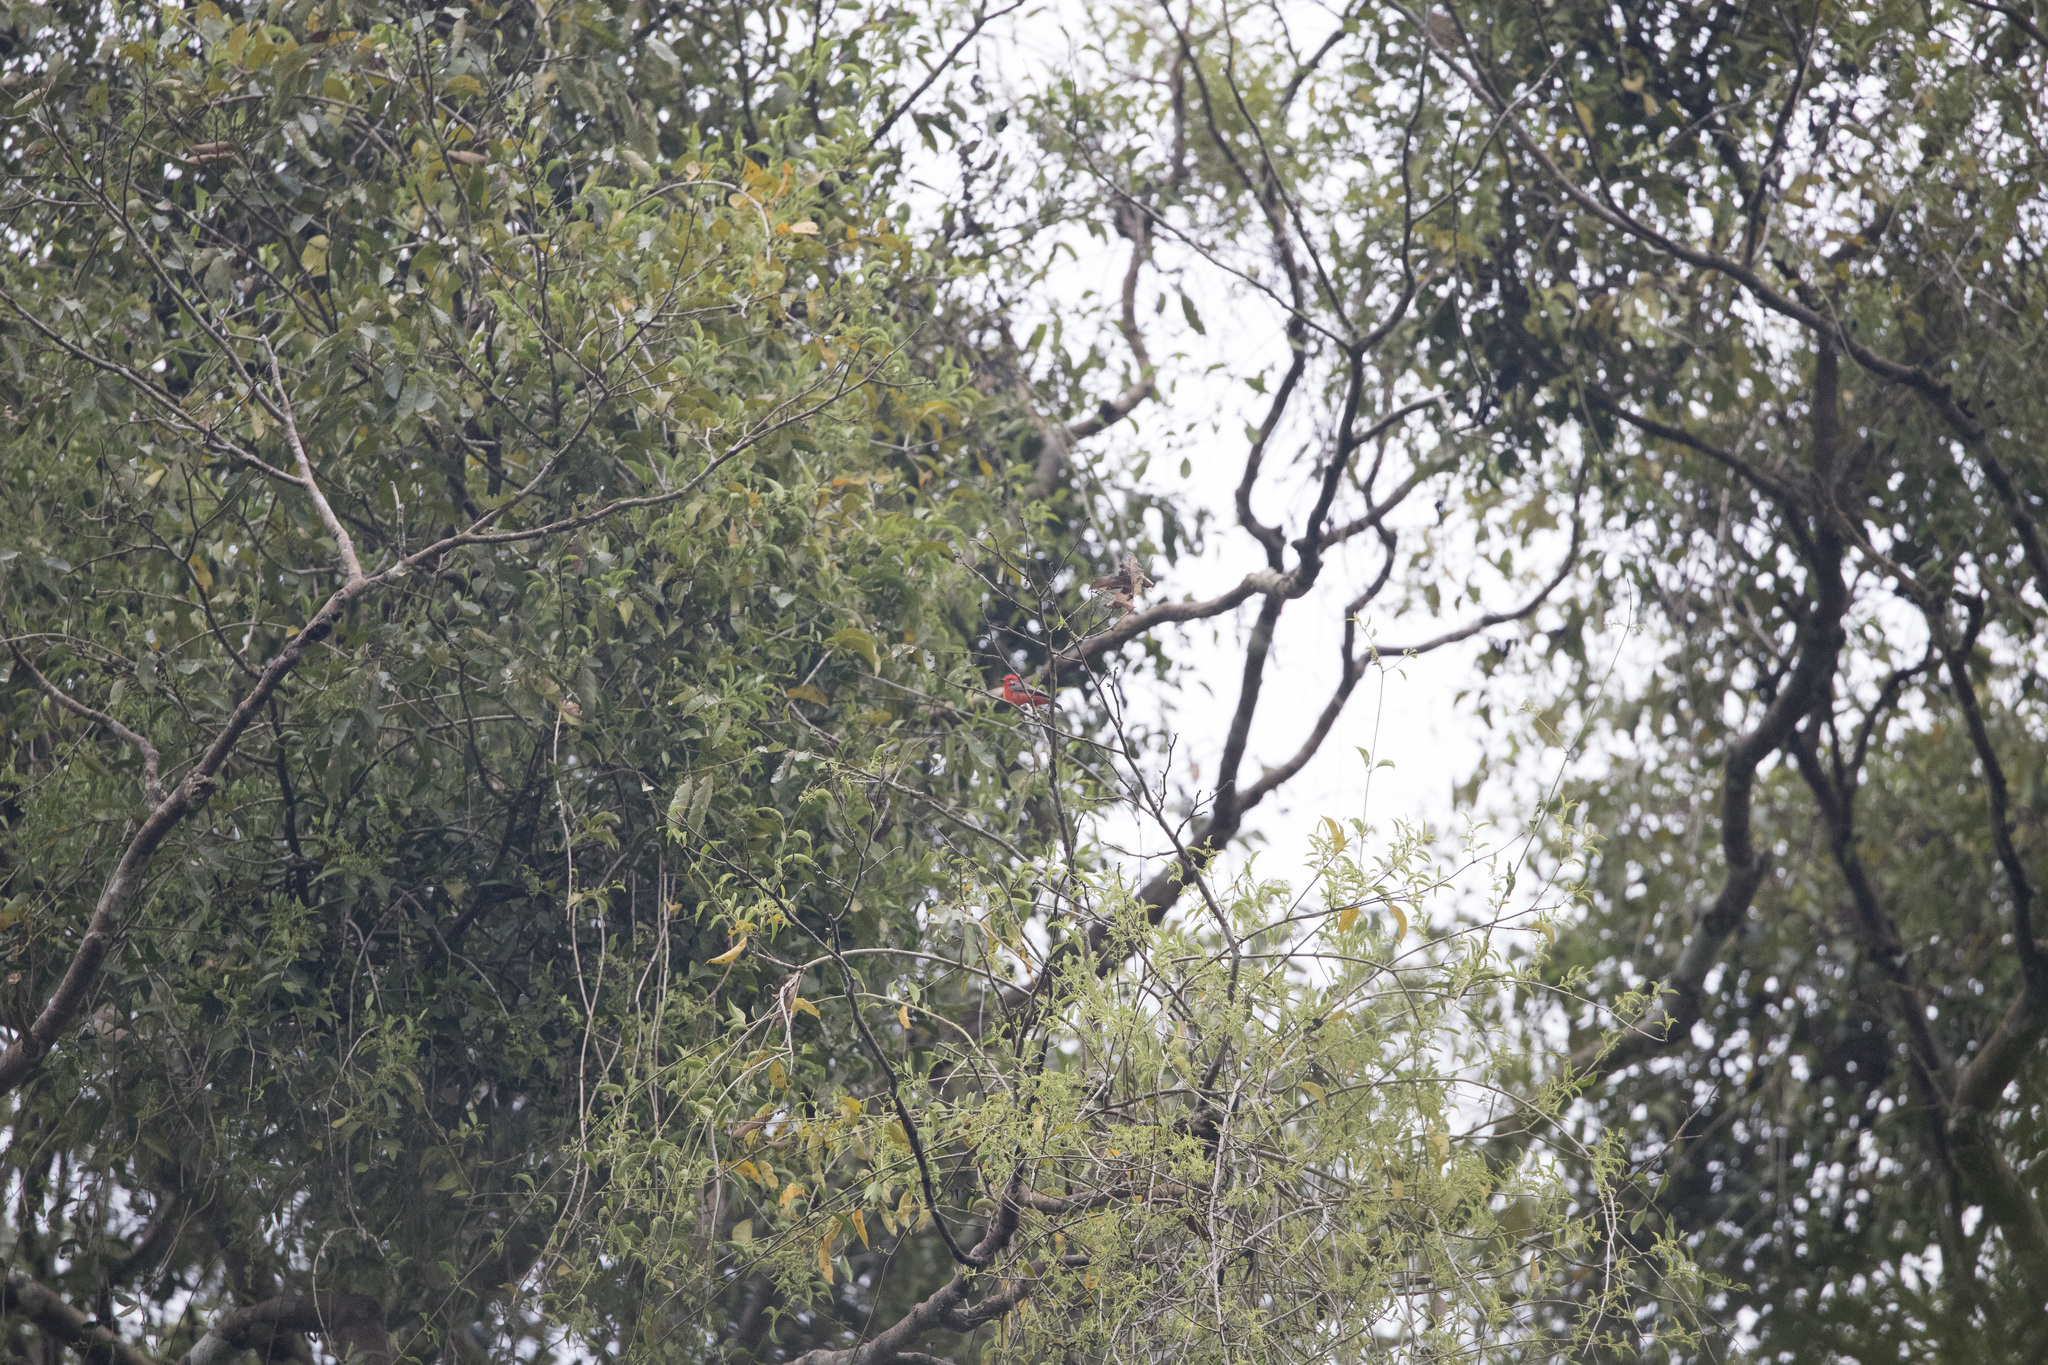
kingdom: Animalia
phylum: Chordata
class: Aves
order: Passeriformes
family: Tyrannidae
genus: Pyrocephalus
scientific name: Pyrocephalus rubinus
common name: Vermilion flycatcher
